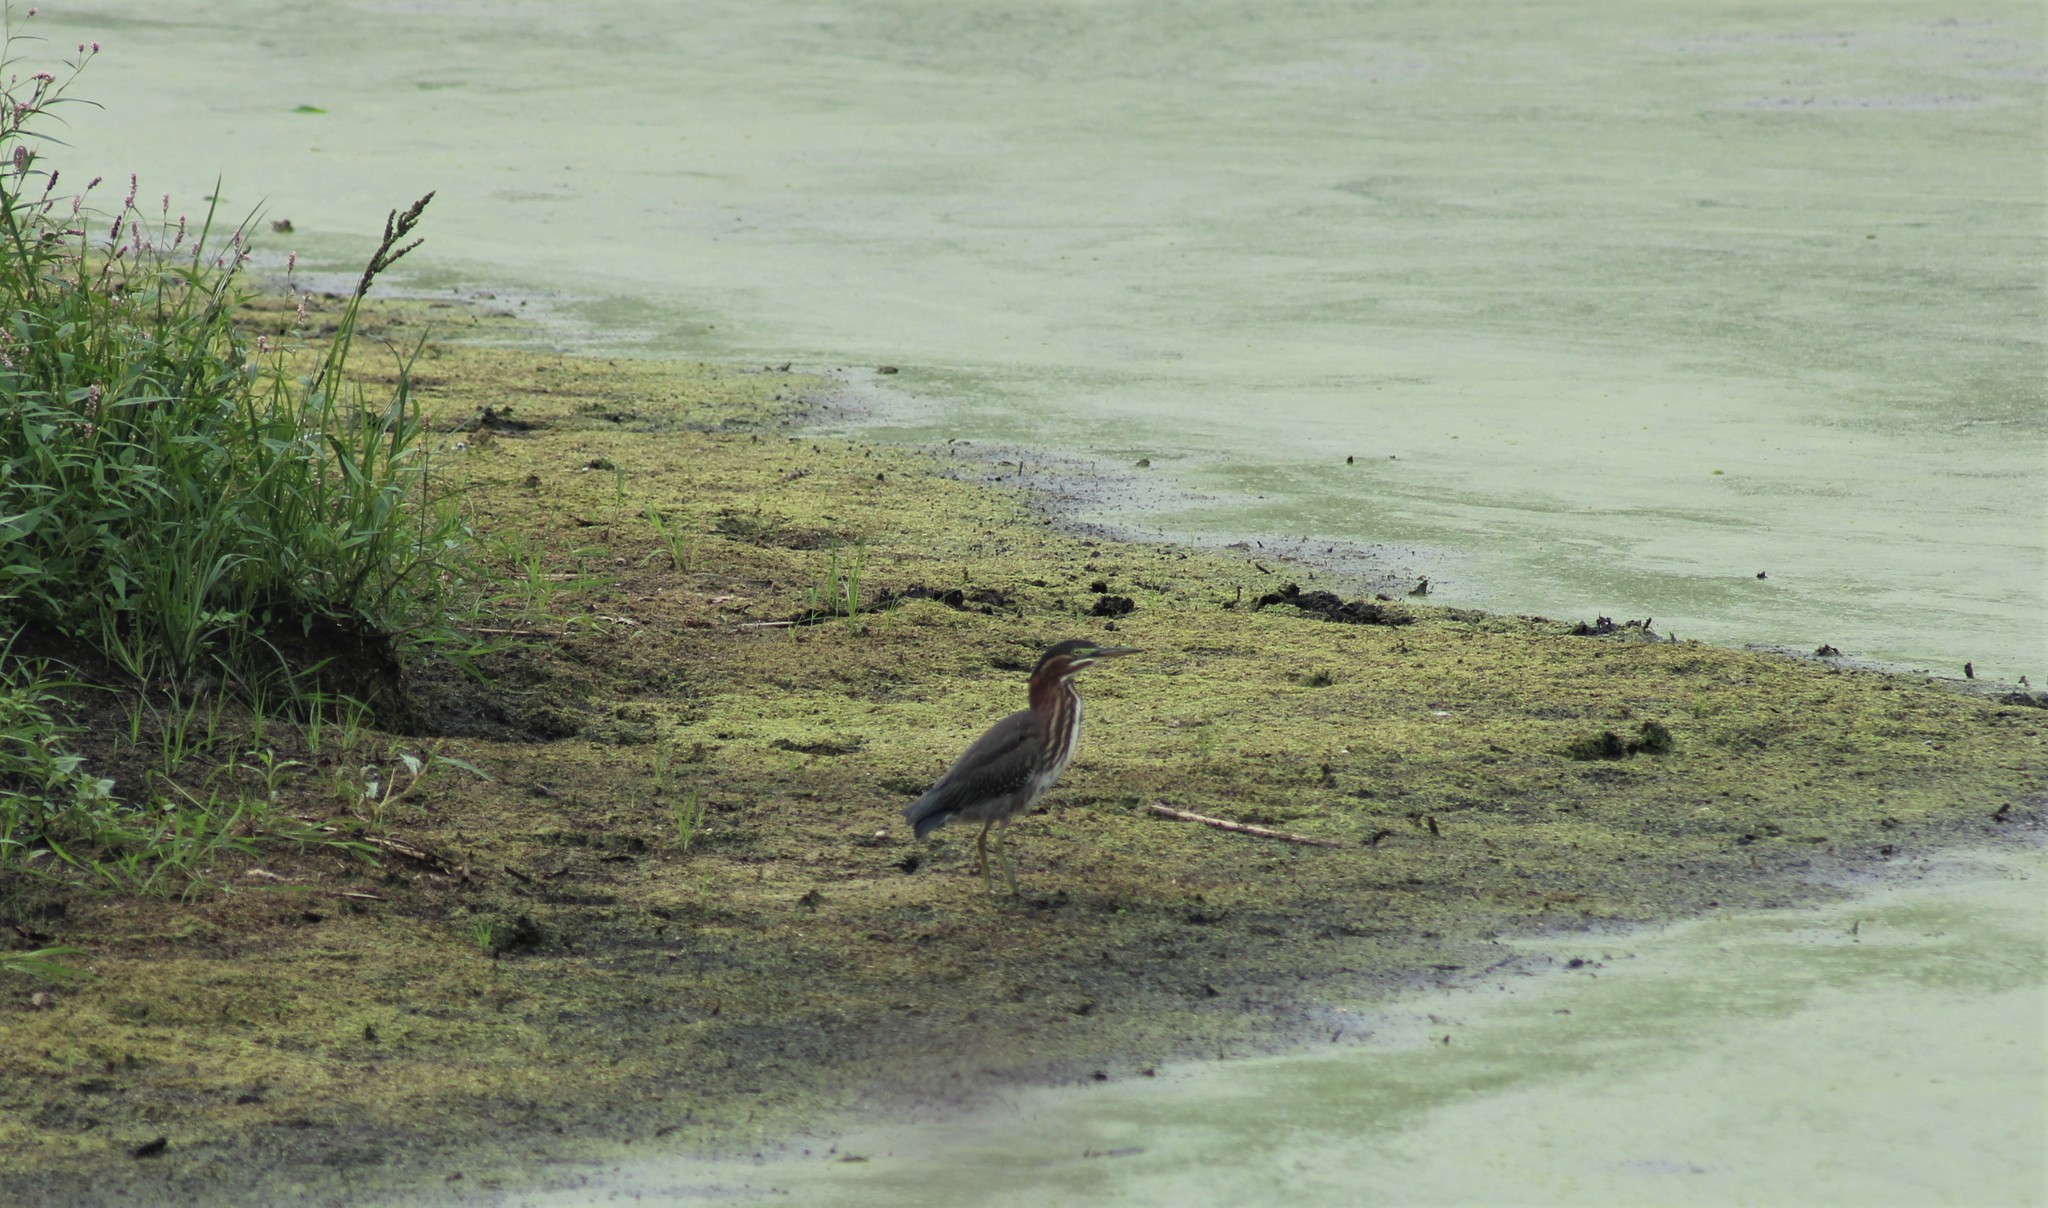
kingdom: Animalia
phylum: Chordata
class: Aves
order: Pelecaniformes
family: Ardeidae
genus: Butorides
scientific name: Butorides virescens
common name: Green heron
